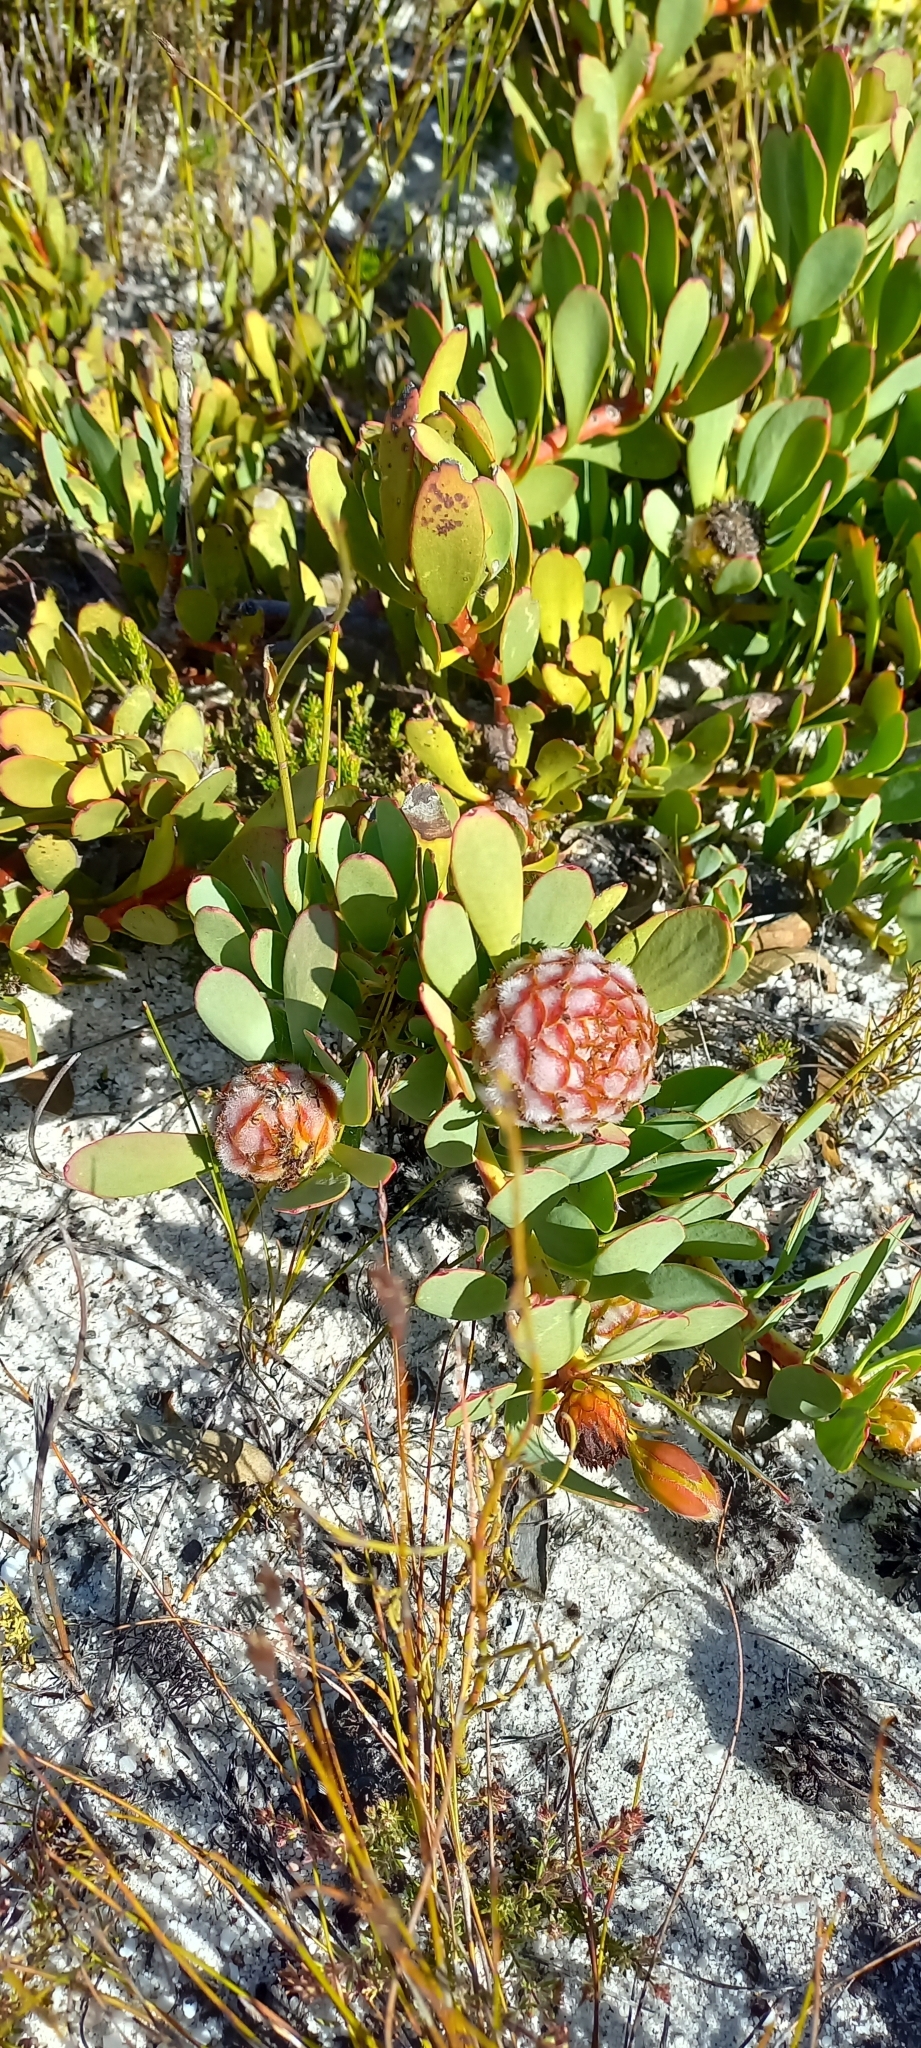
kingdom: Plantae
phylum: Tracheophyta
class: Magnoliopsida
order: Proteales
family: Proteaceae
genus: Leucadendron
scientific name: Leucadendron arcuatum
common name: Red-edge conebush
